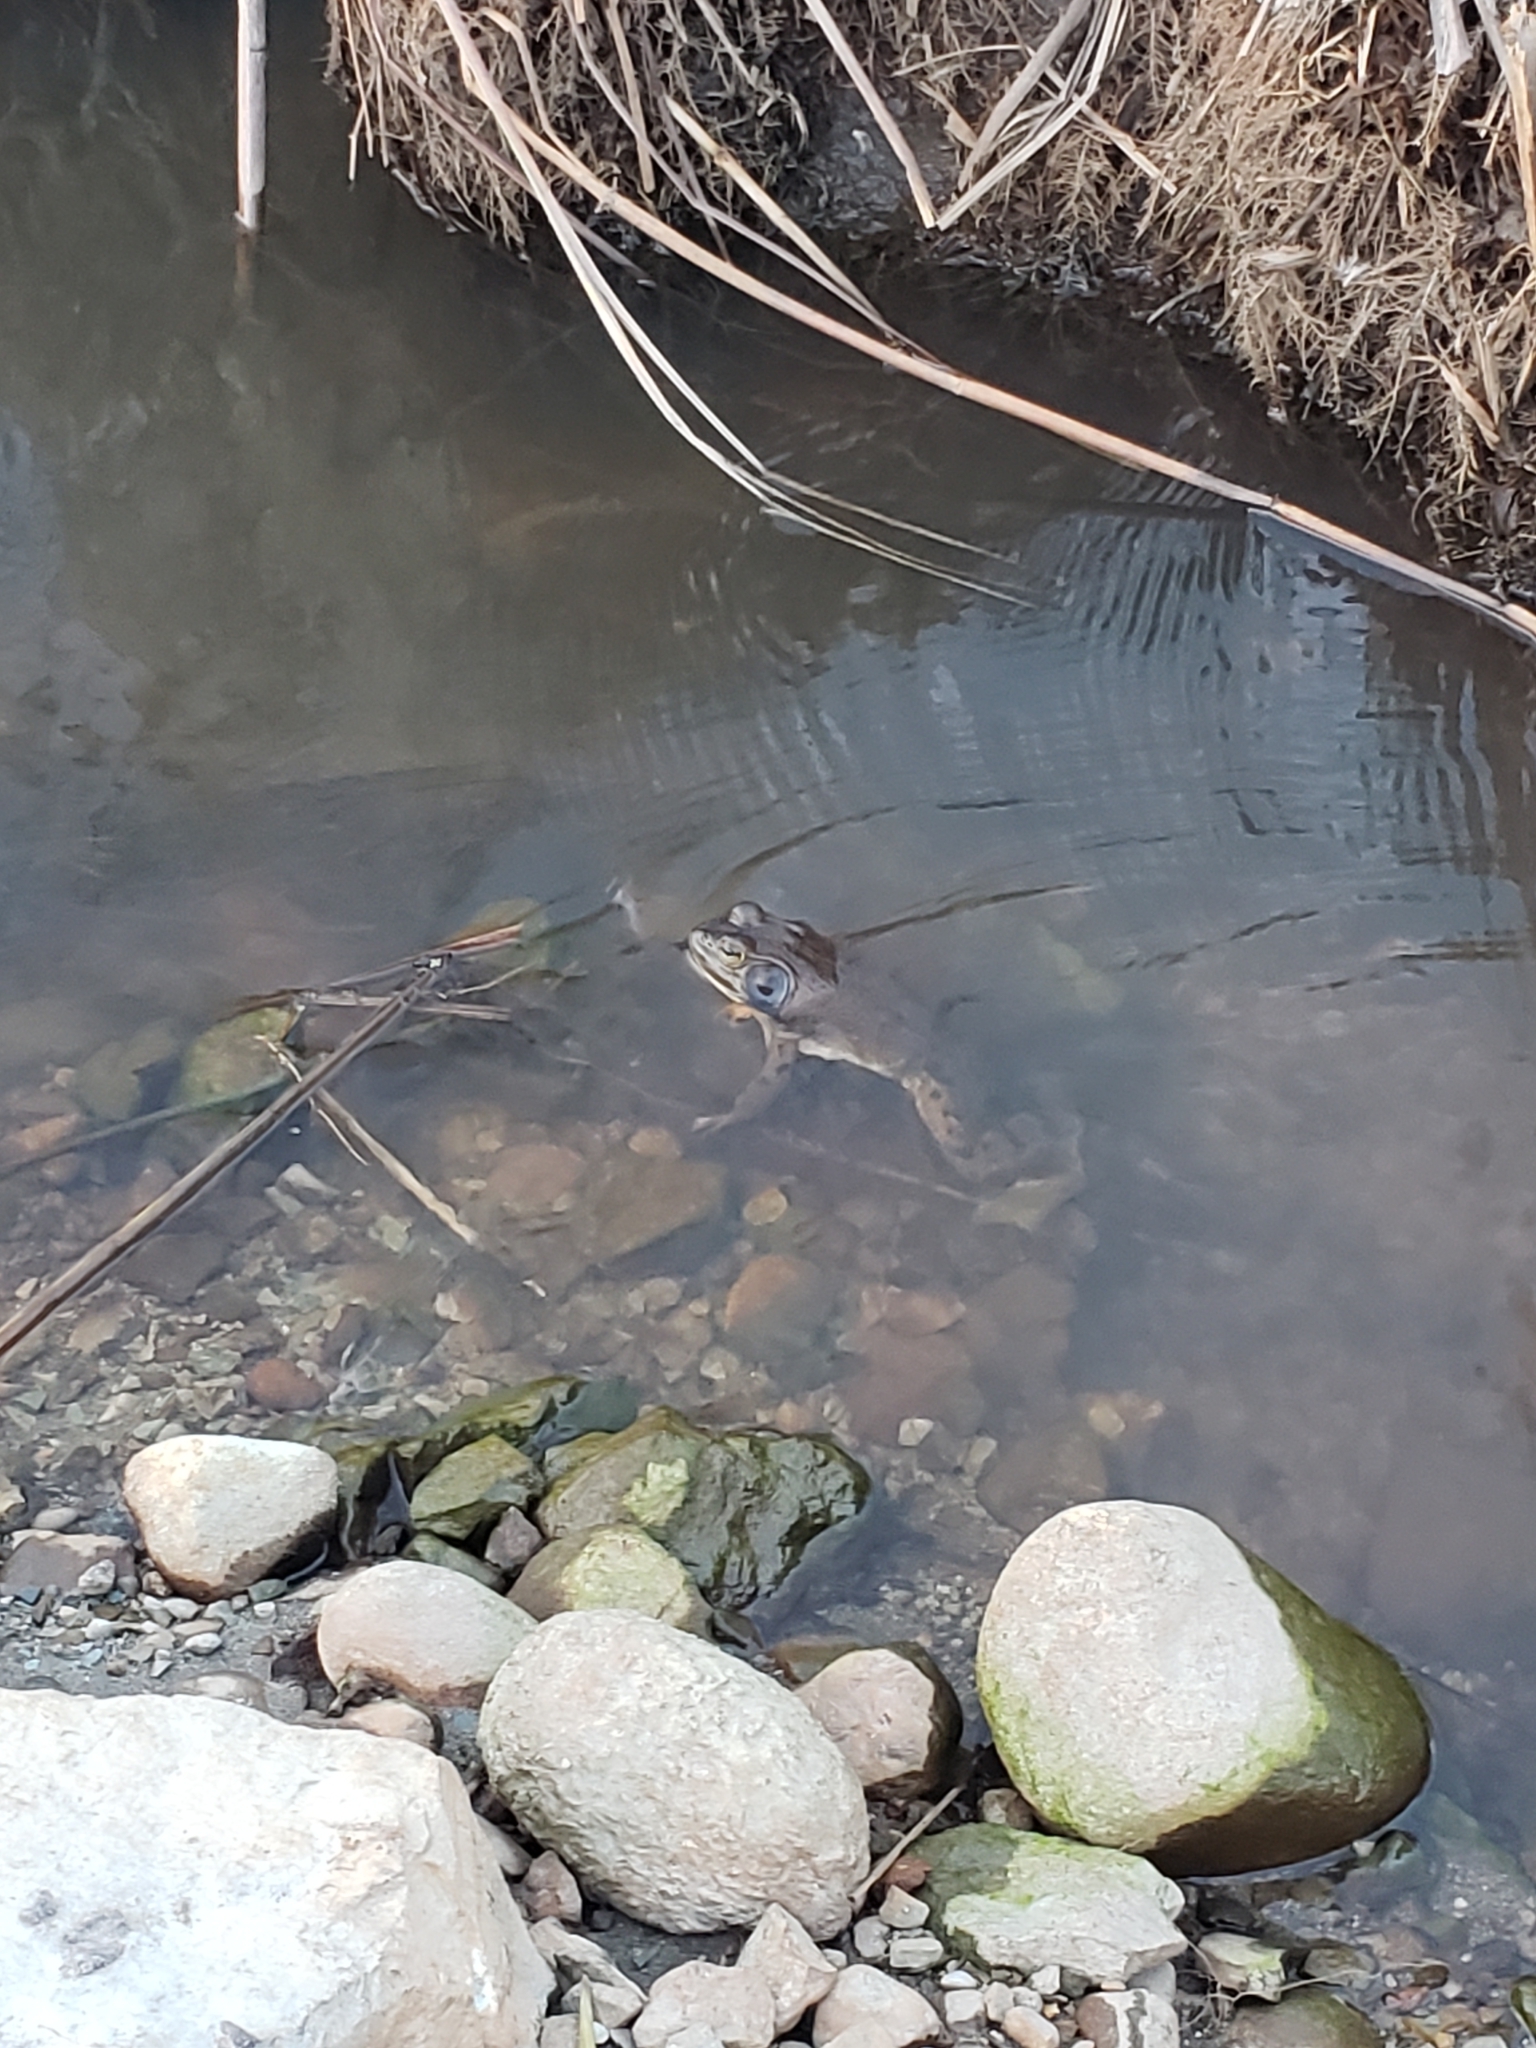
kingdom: Animalia
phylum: Chordata
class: Amphibia
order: Anura
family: Ranidae
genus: Lithobates
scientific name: Lithobates catesbeianus
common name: American bullfrog
